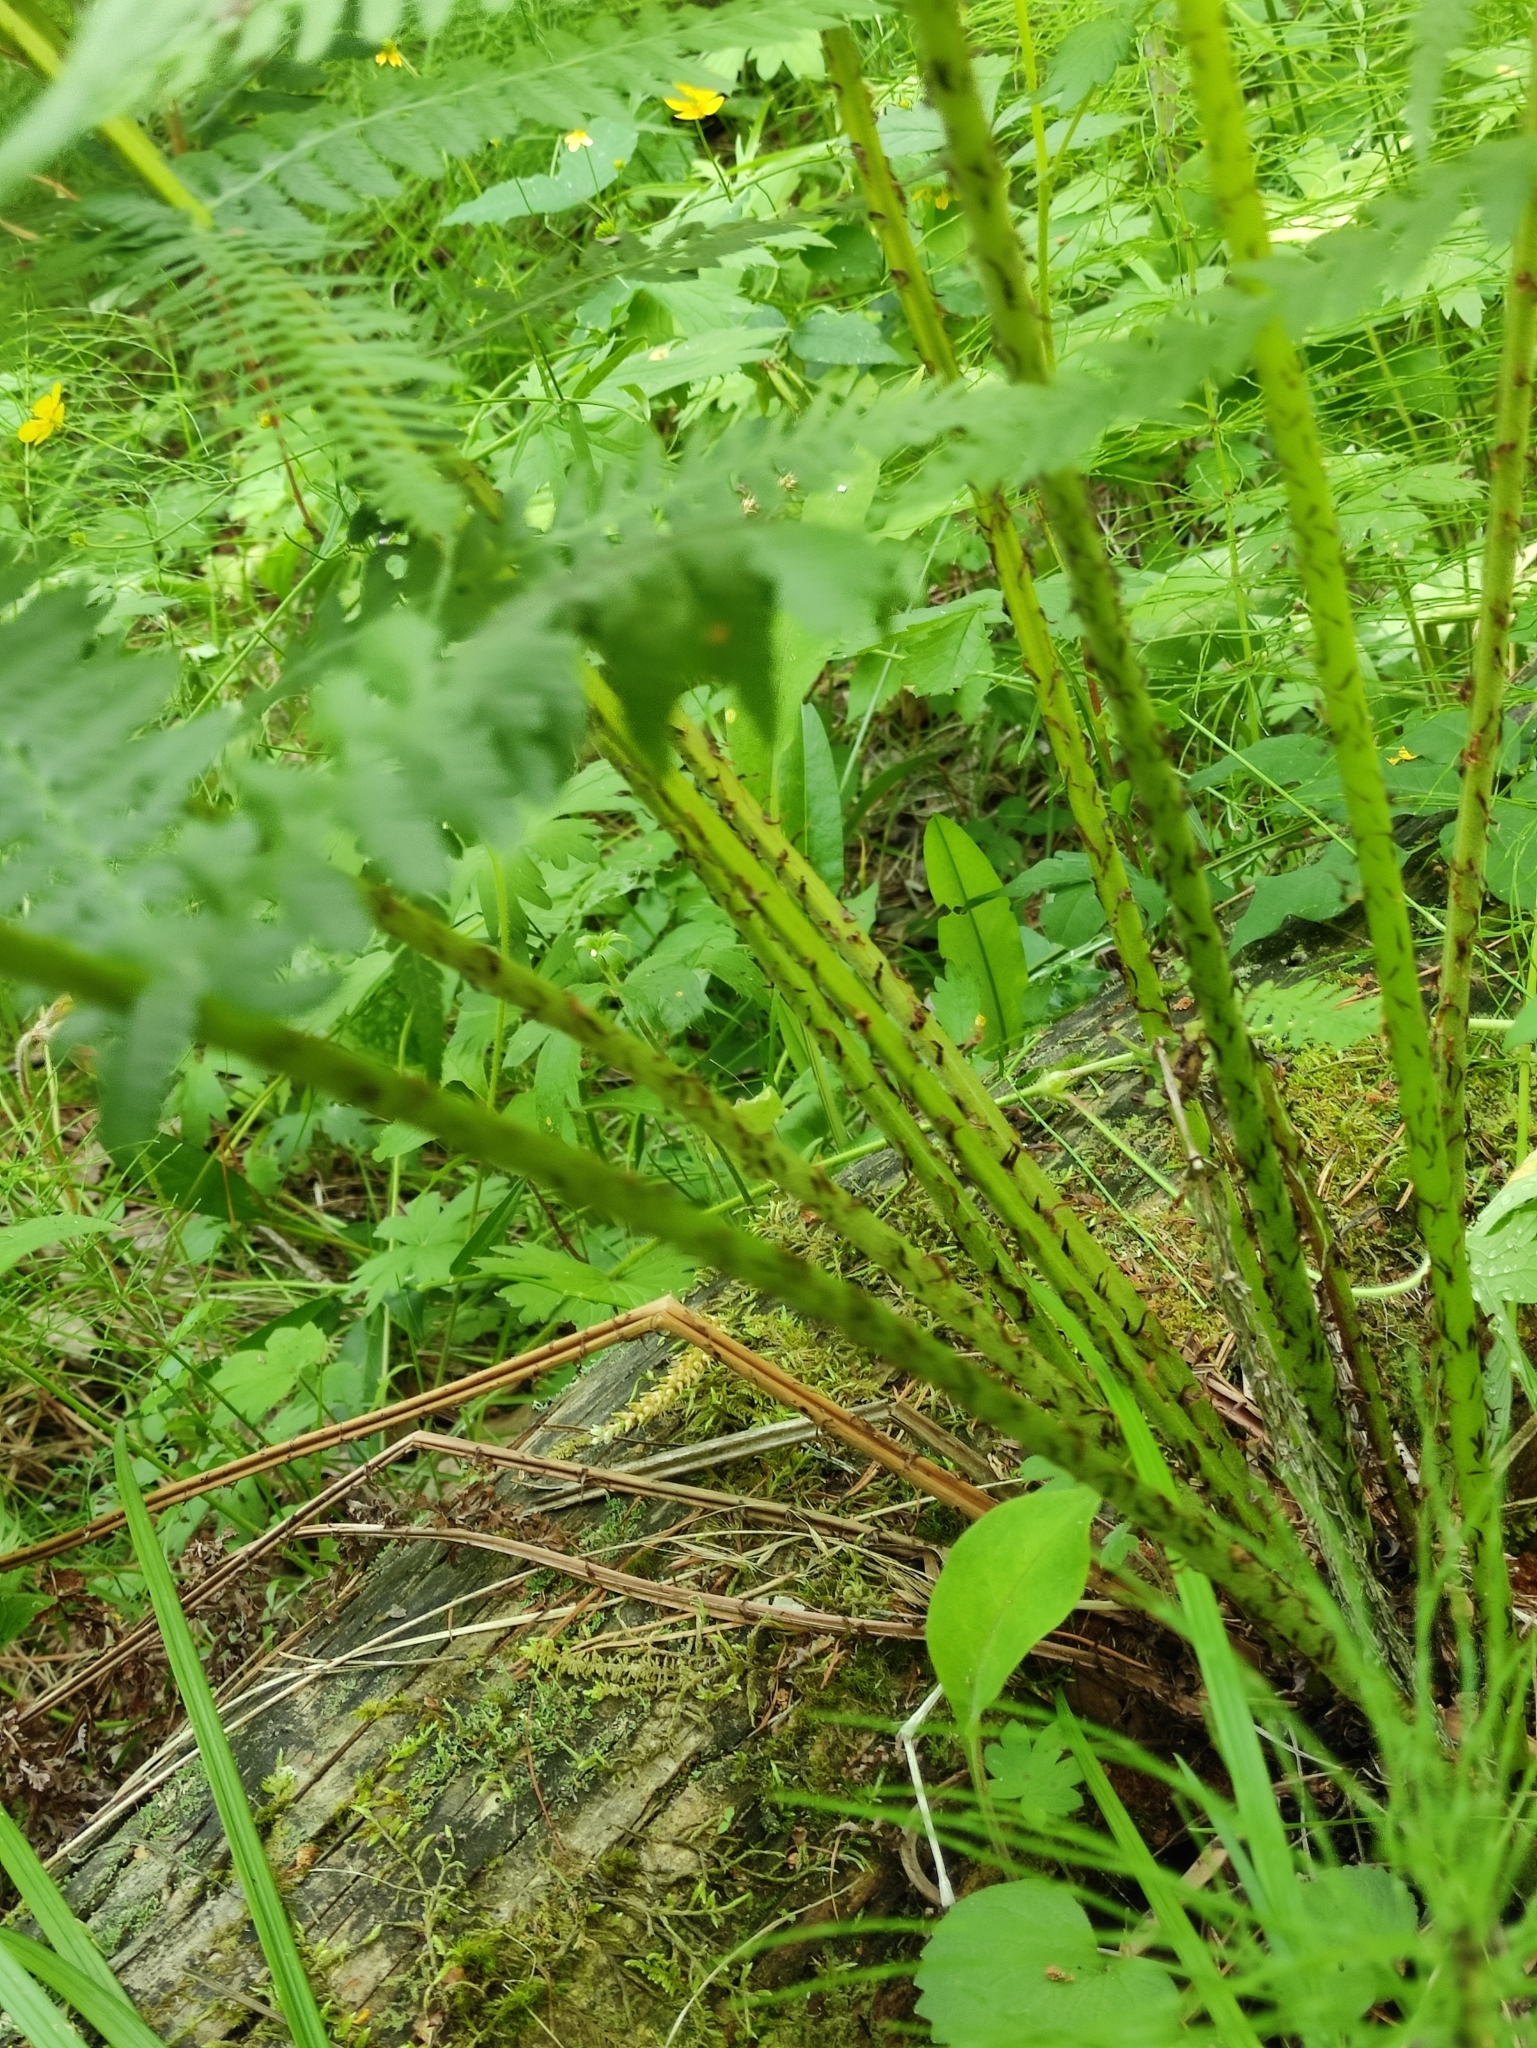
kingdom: Plantae
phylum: Tracheophyta
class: Polypodiopsida
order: Polypodiales
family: Athyriaceae
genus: Athyrium
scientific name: Athyrium filix-femina
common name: Lady fern
